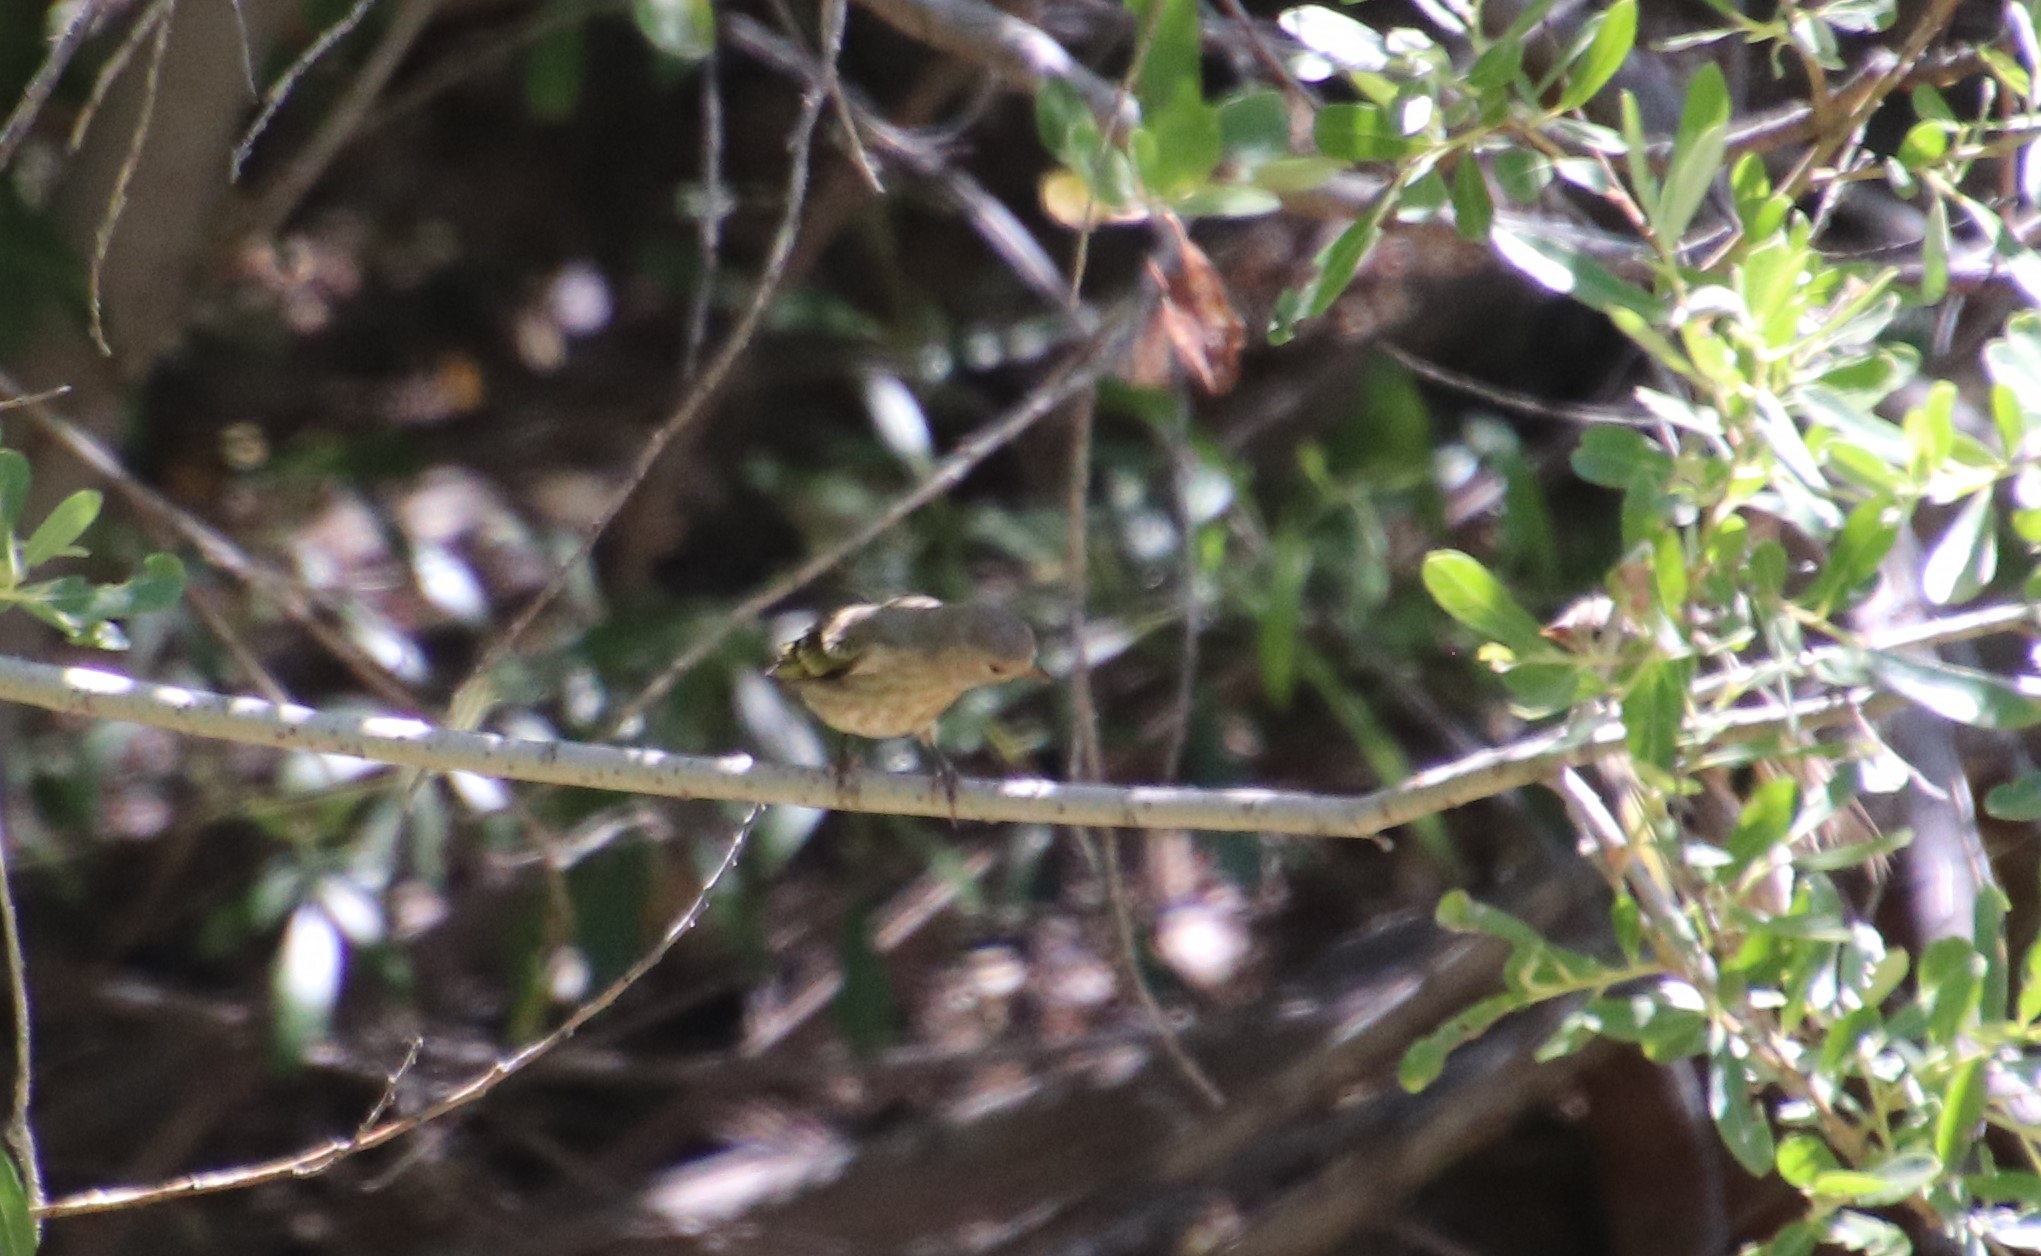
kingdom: Animalia
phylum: Chordata
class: Aves
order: Passeriformes
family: Fringillidae
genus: Spinus
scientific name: Spinus lawrencei
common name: Lawrence's goldfinch
